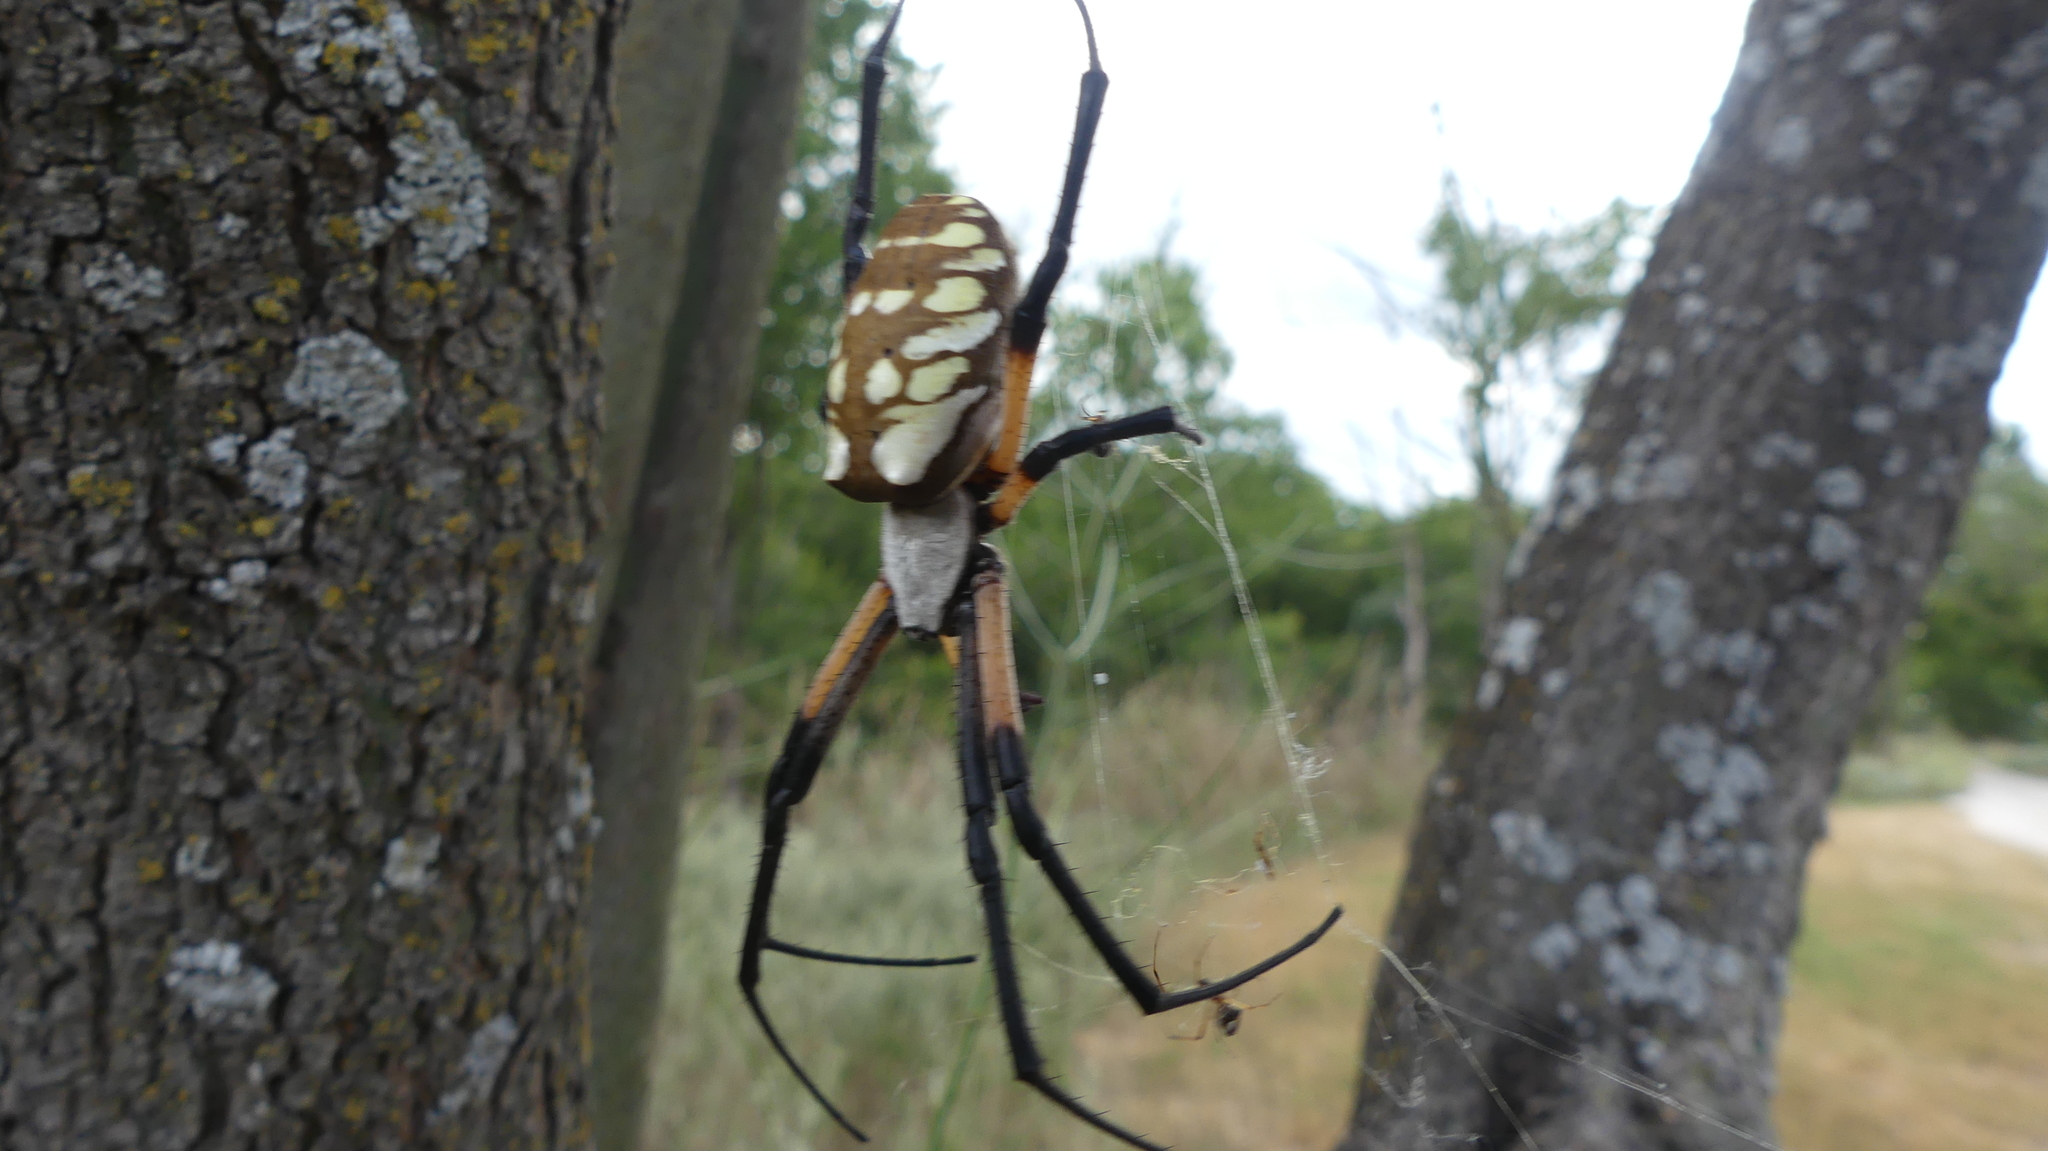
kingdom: Animalia
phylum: Arthropoda
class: Arachnida
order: Araneae
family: Araneidae
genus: Argiope
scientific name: Argiope aurantia
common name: Orb weavers
